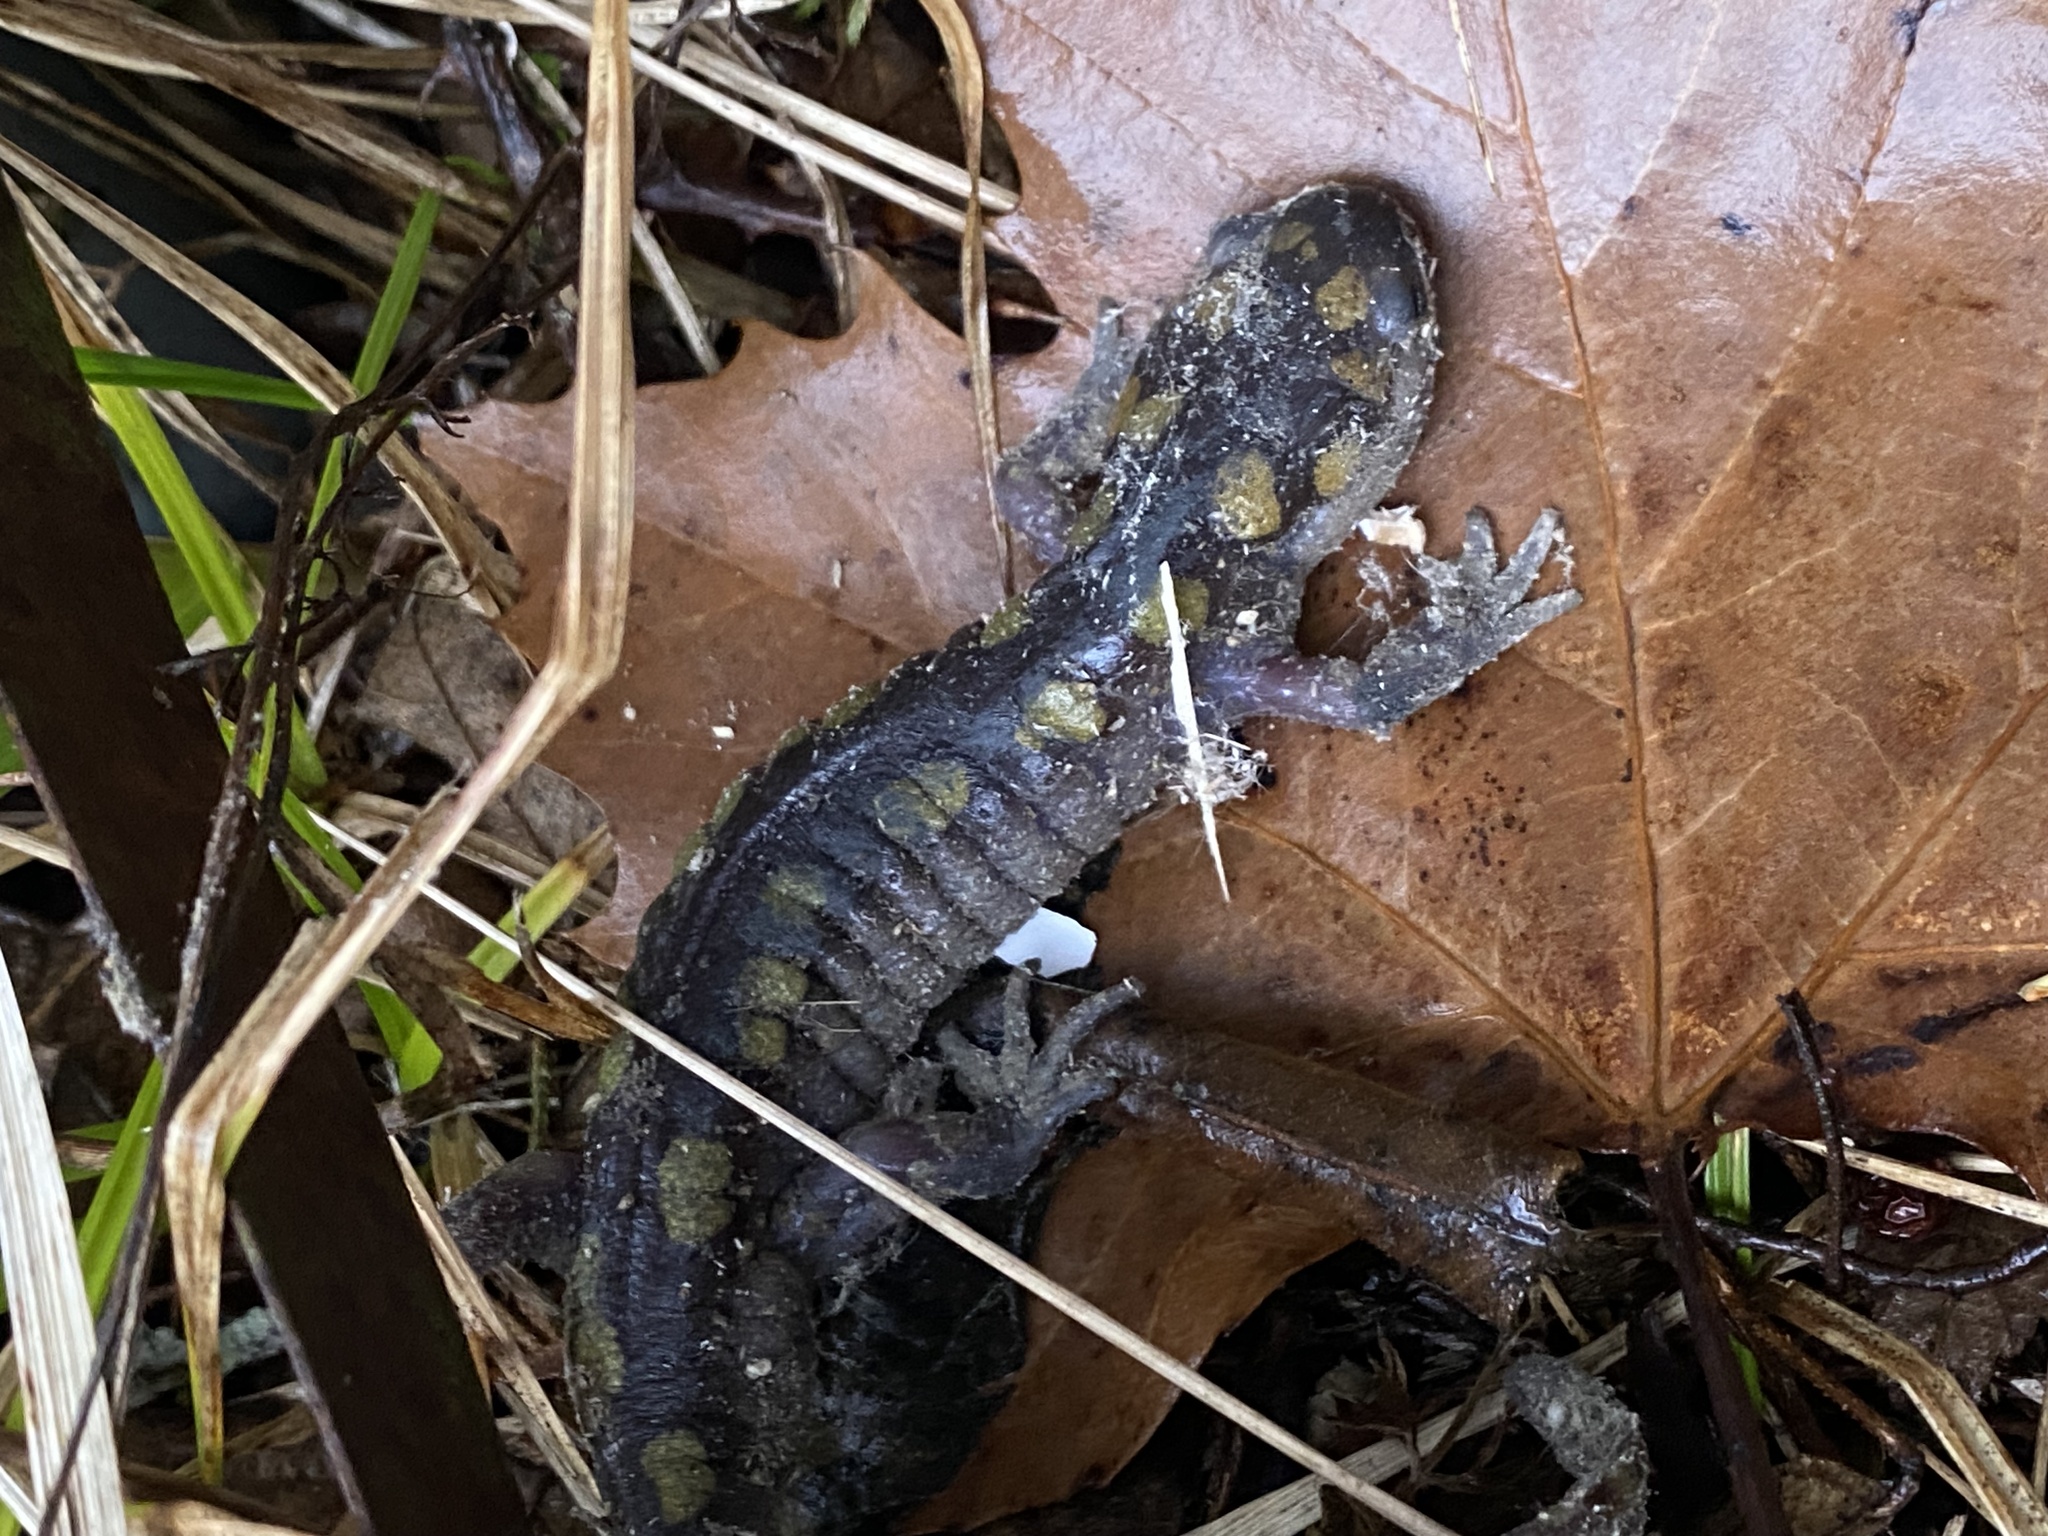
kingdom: Animalia
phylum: Chordata
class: Amphibia
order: Caudata
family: Ambystomatidae
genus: Ambystoma
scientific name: Ambystoma maculatum
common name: Spotted salamander
